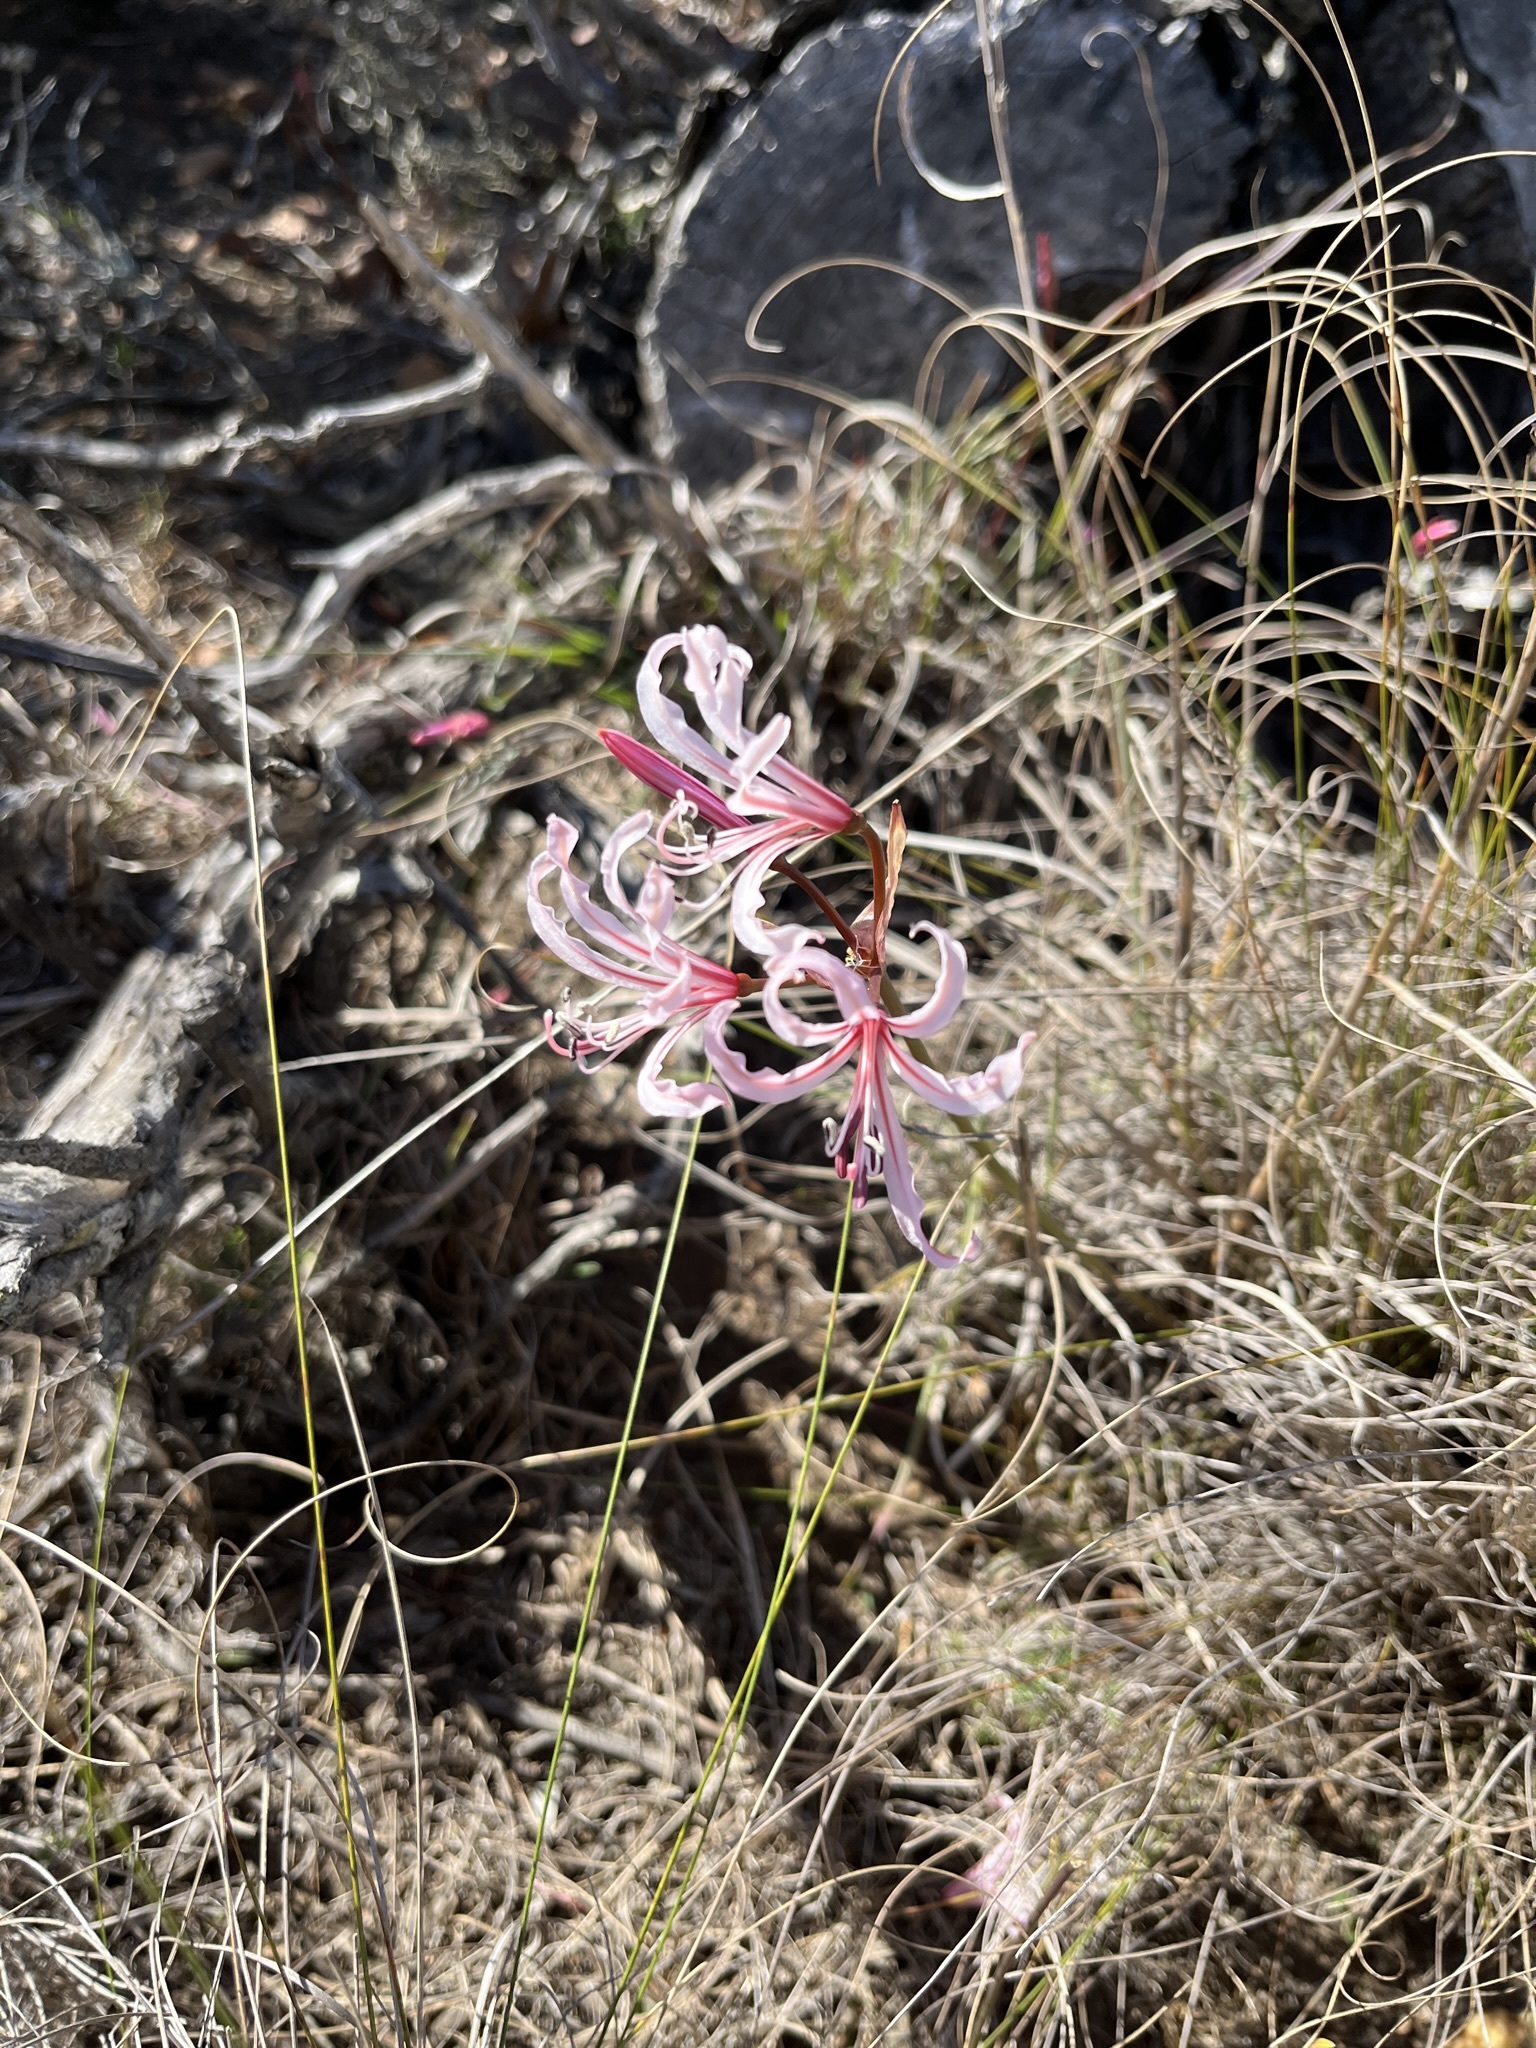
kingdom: Plantae
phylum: Tracheophyta
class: Liliopsida
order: Asparagales
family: Amaryllidaceae
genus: Nerine
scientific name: Nerine humilis
